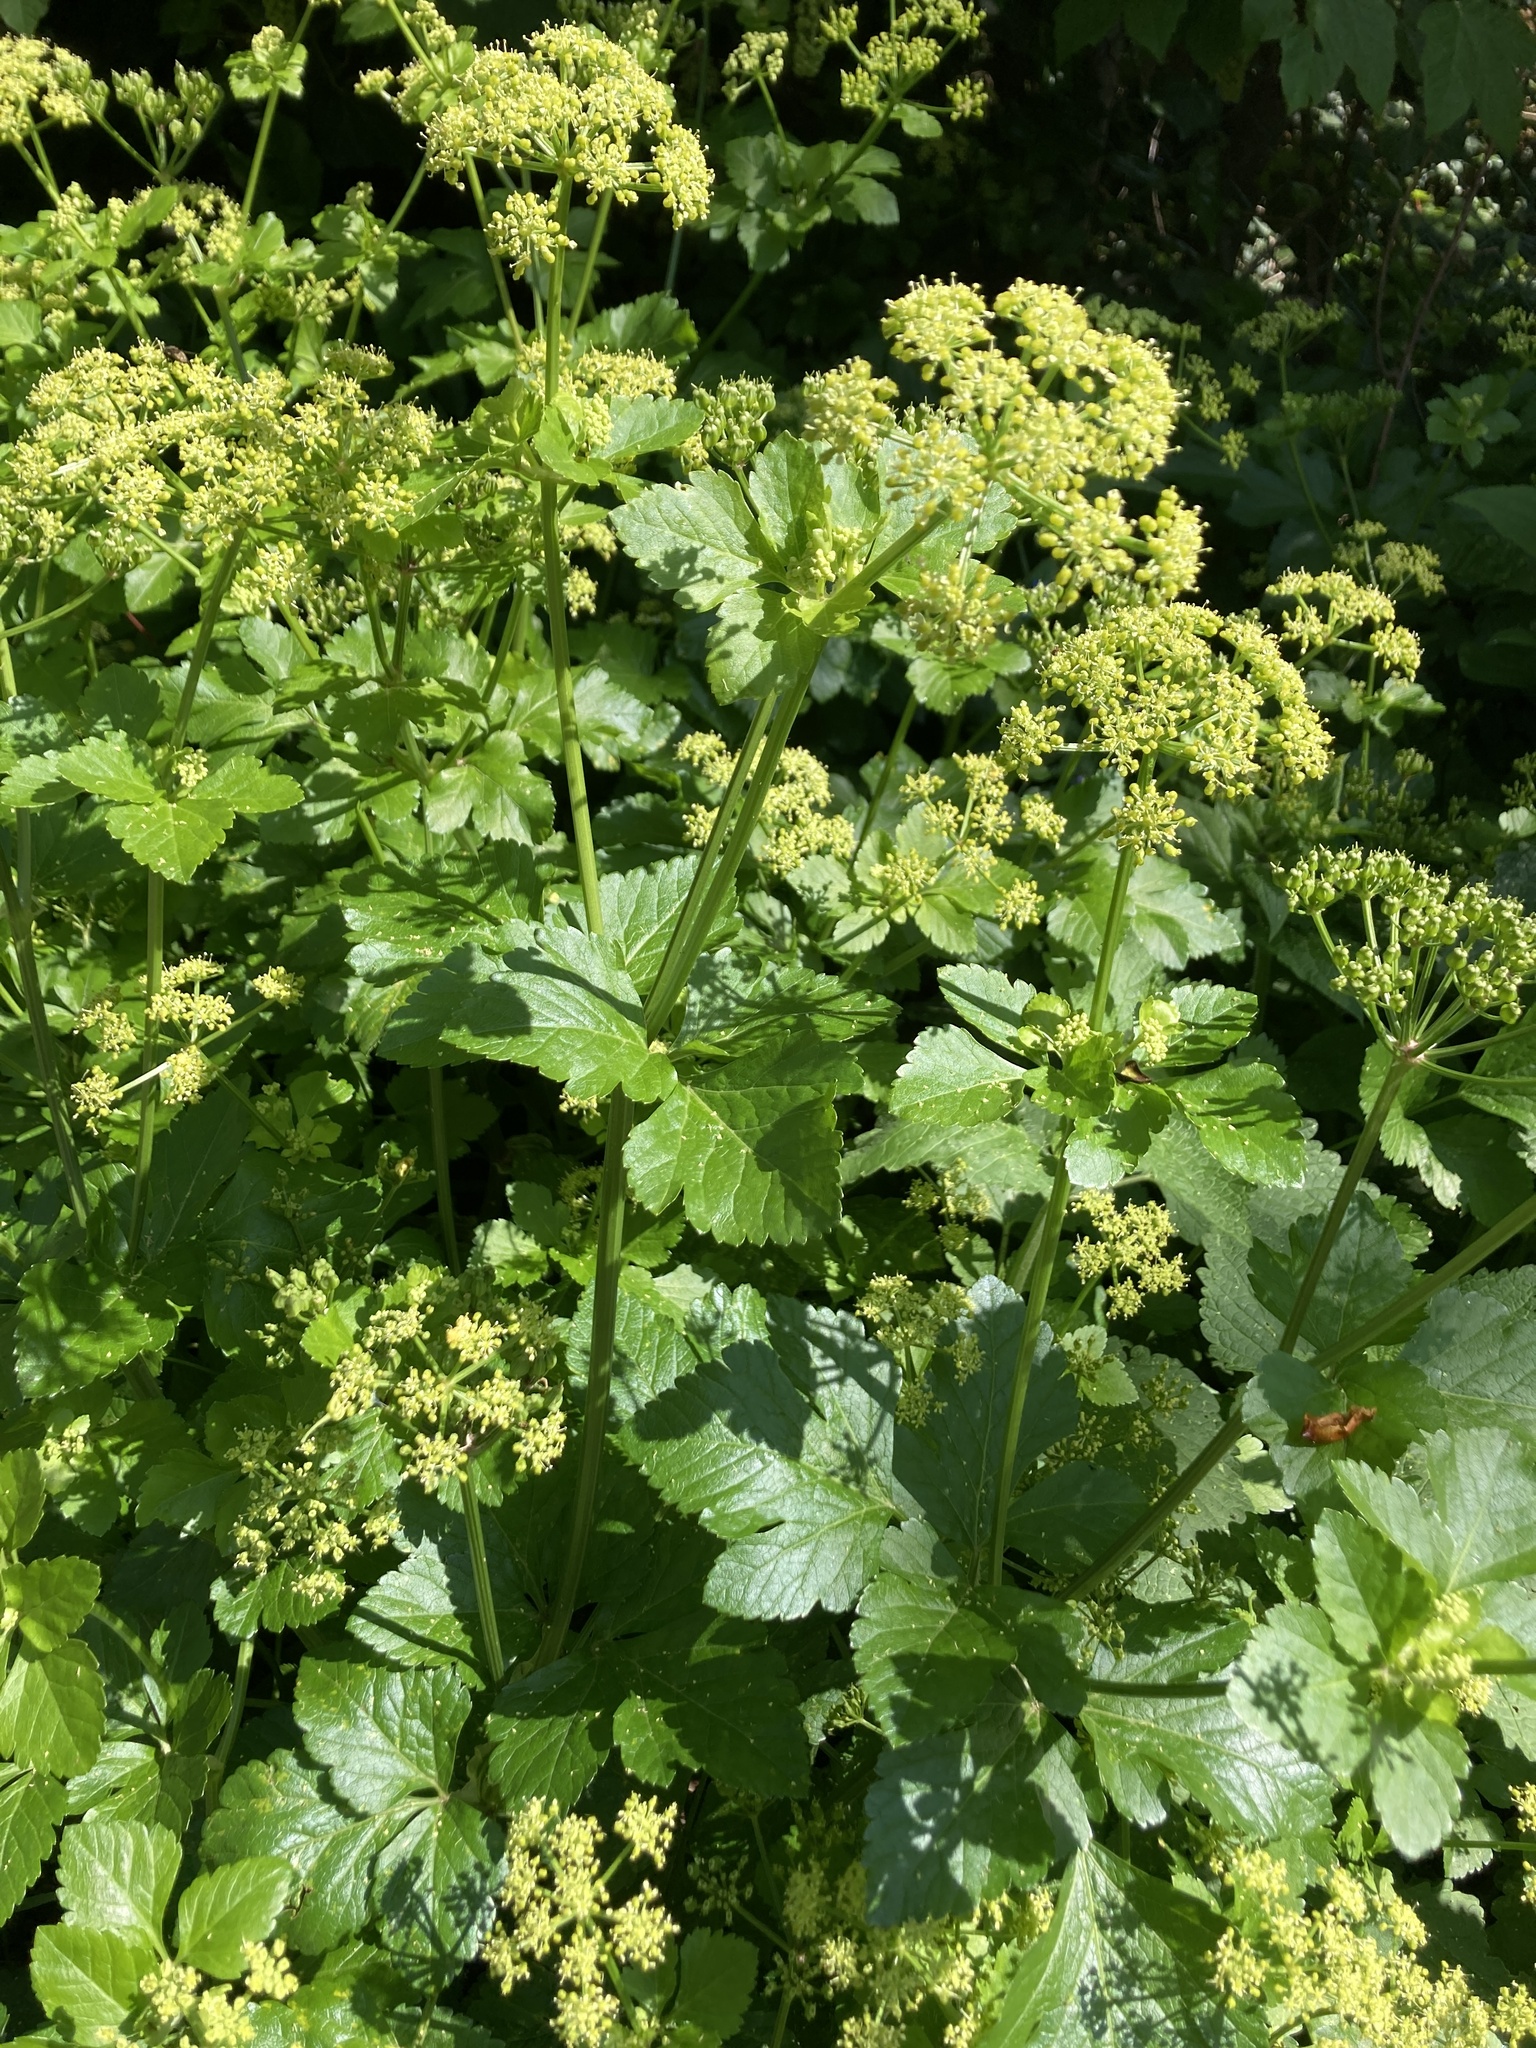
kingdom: Plantae
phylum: Tracheophyta
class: Magnoliopsida
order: Apiales
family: Apiaceae
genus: Smyrnium
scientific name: Smyrnium olusatrum
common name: Alexanders
